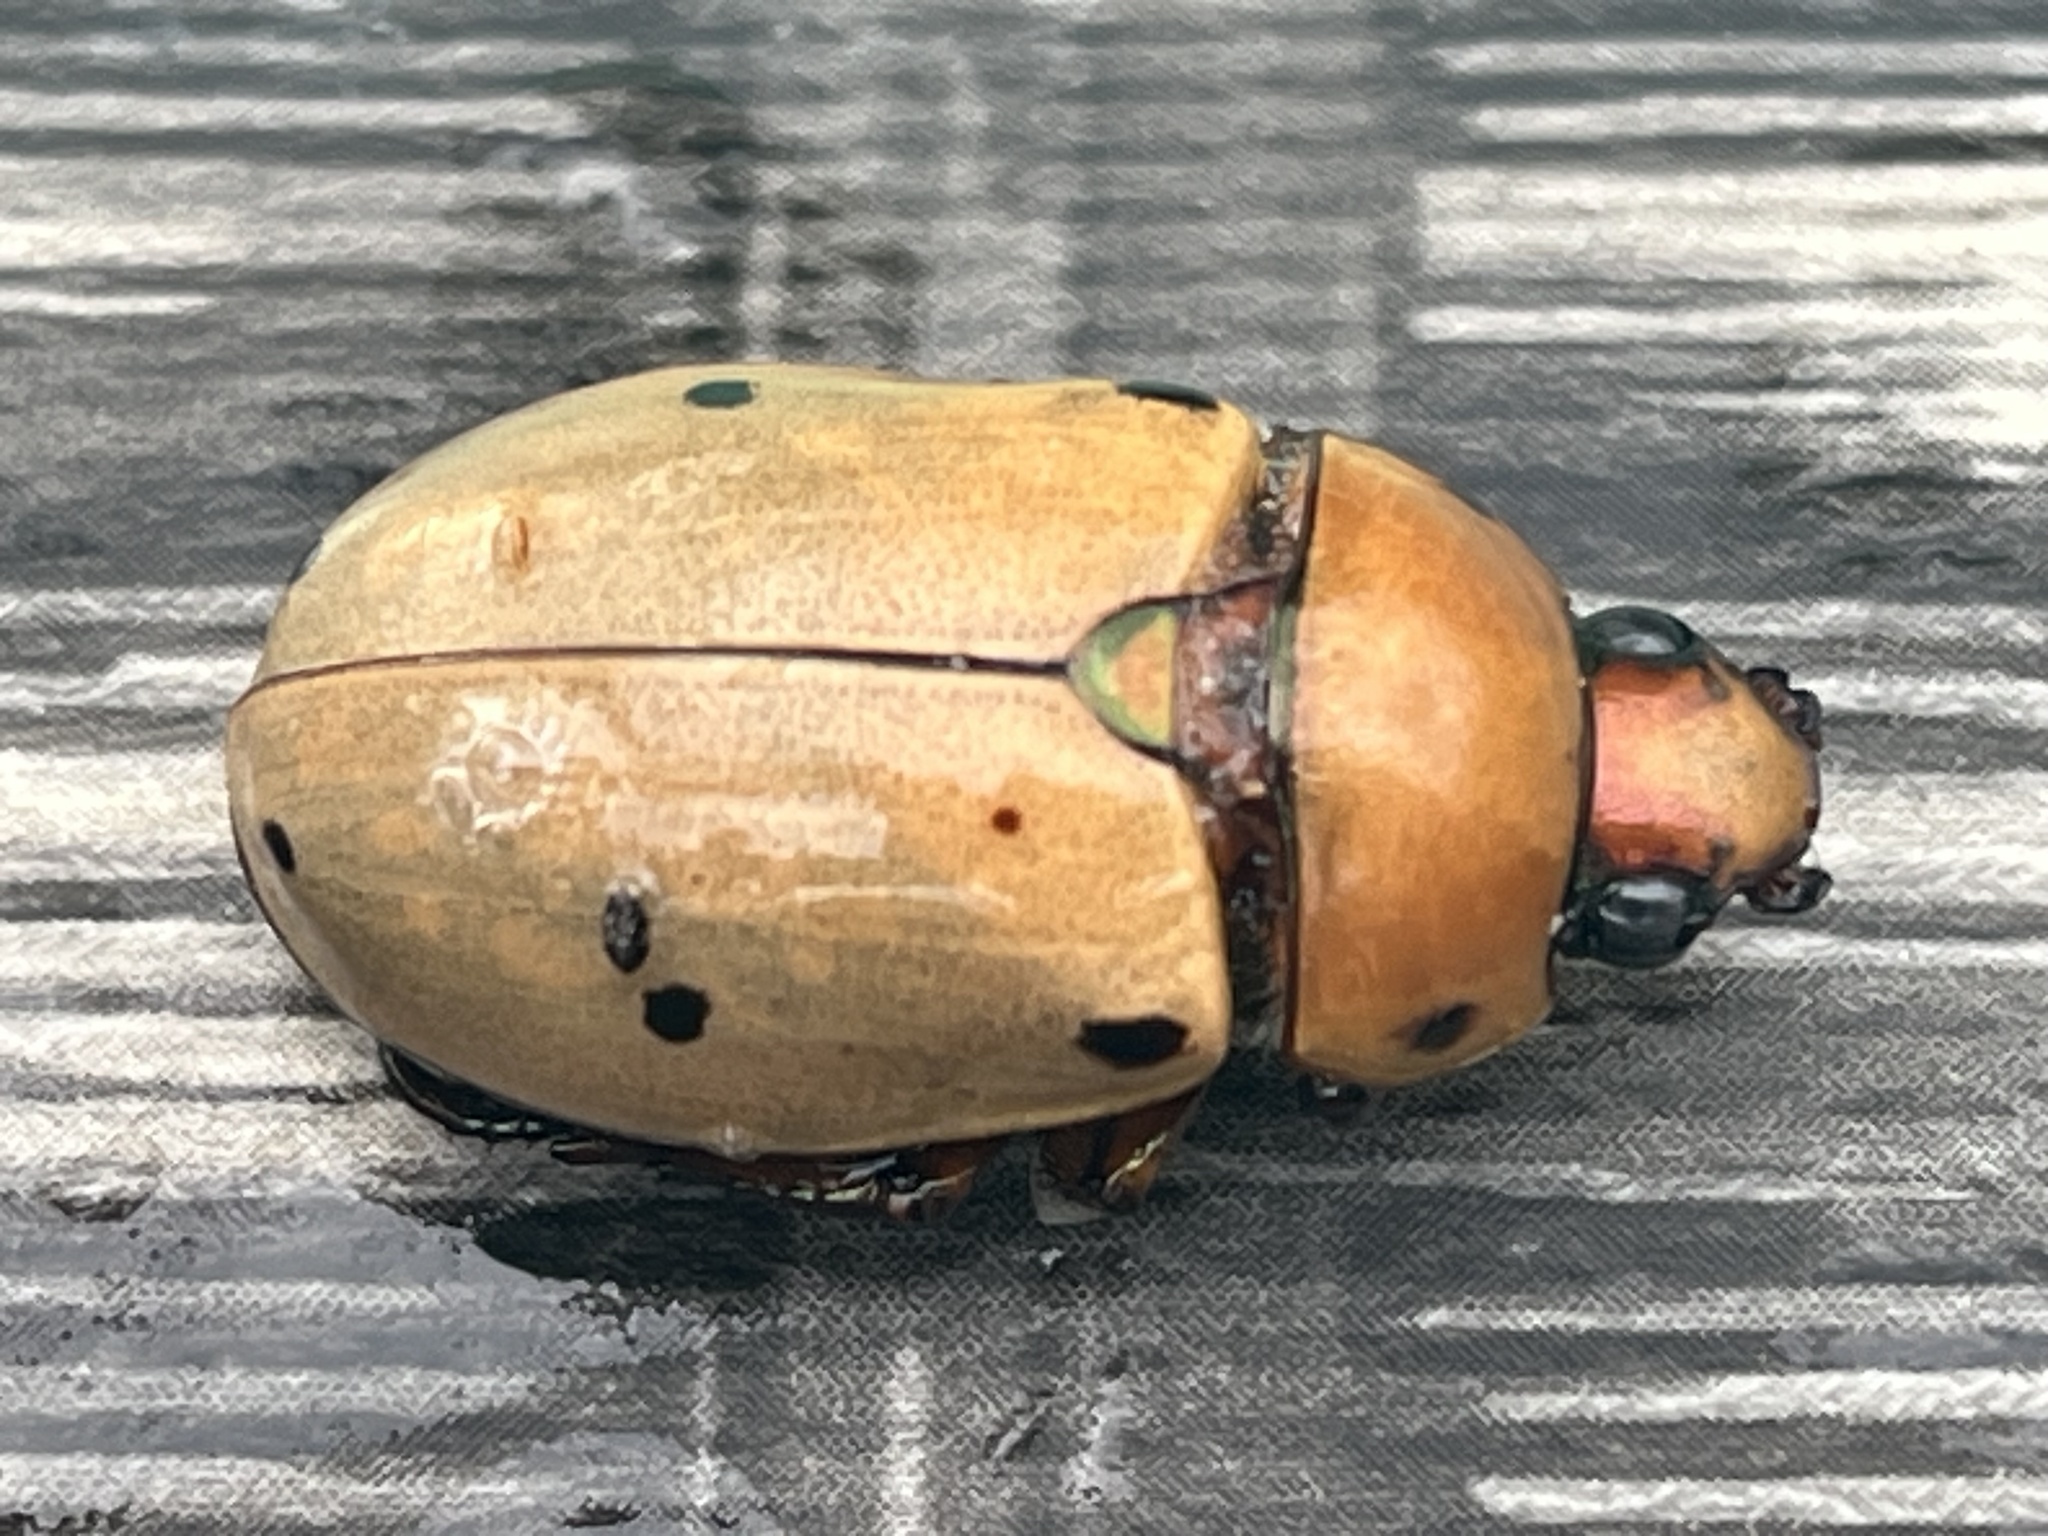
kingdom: Animalia
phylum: Arthropoda
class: Insecta
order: Coleoptera
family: Scarabaeidae
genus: Pelidnota
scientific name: Pelidnota punctata
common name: Grapevine beetle
